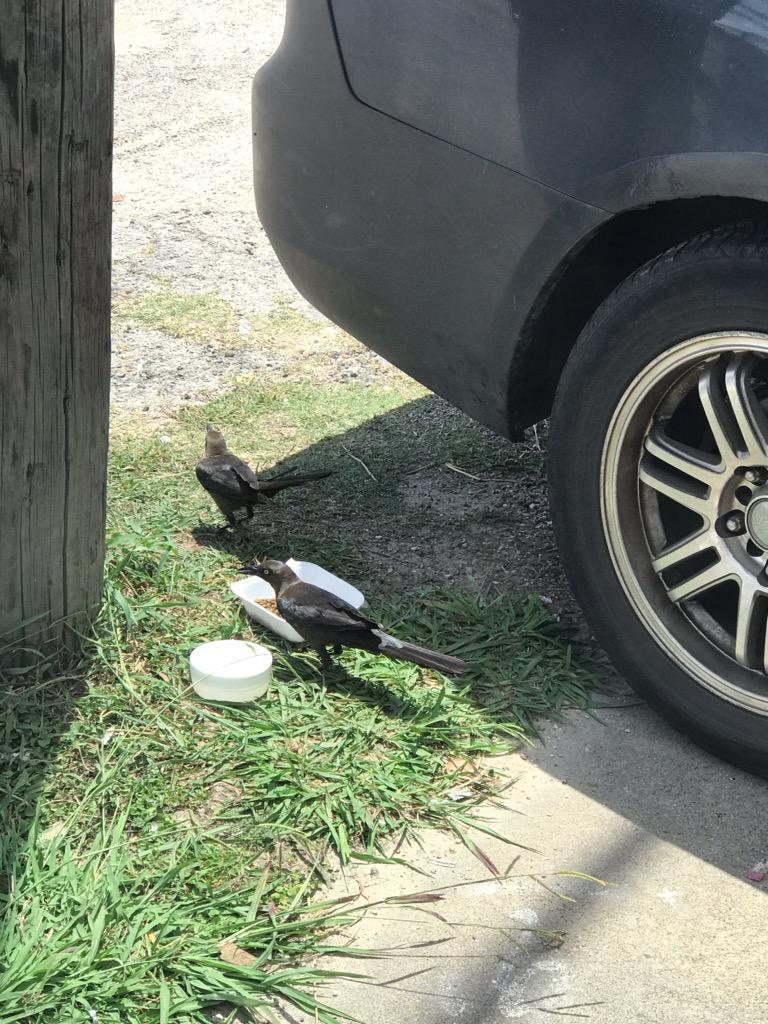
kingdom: Animalia
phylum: Chordata
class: Aves
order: Passeriformes
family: Icteridae
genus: Quiscalus
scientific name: Quiscalus mexicanus
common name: Great-tailed grackle
